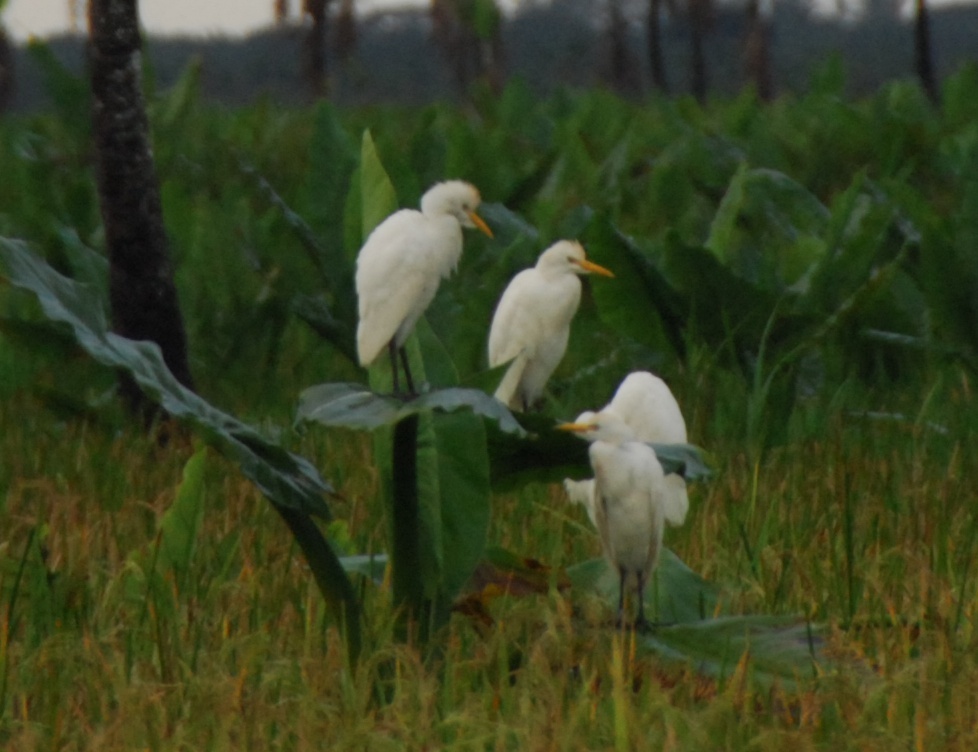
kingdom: Animalia
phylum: Chordata
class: Aves
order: Pelecaniformes
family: Ardeidae
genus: Bubulcus
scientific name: Bubulcus ibis
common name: Cattle egret
